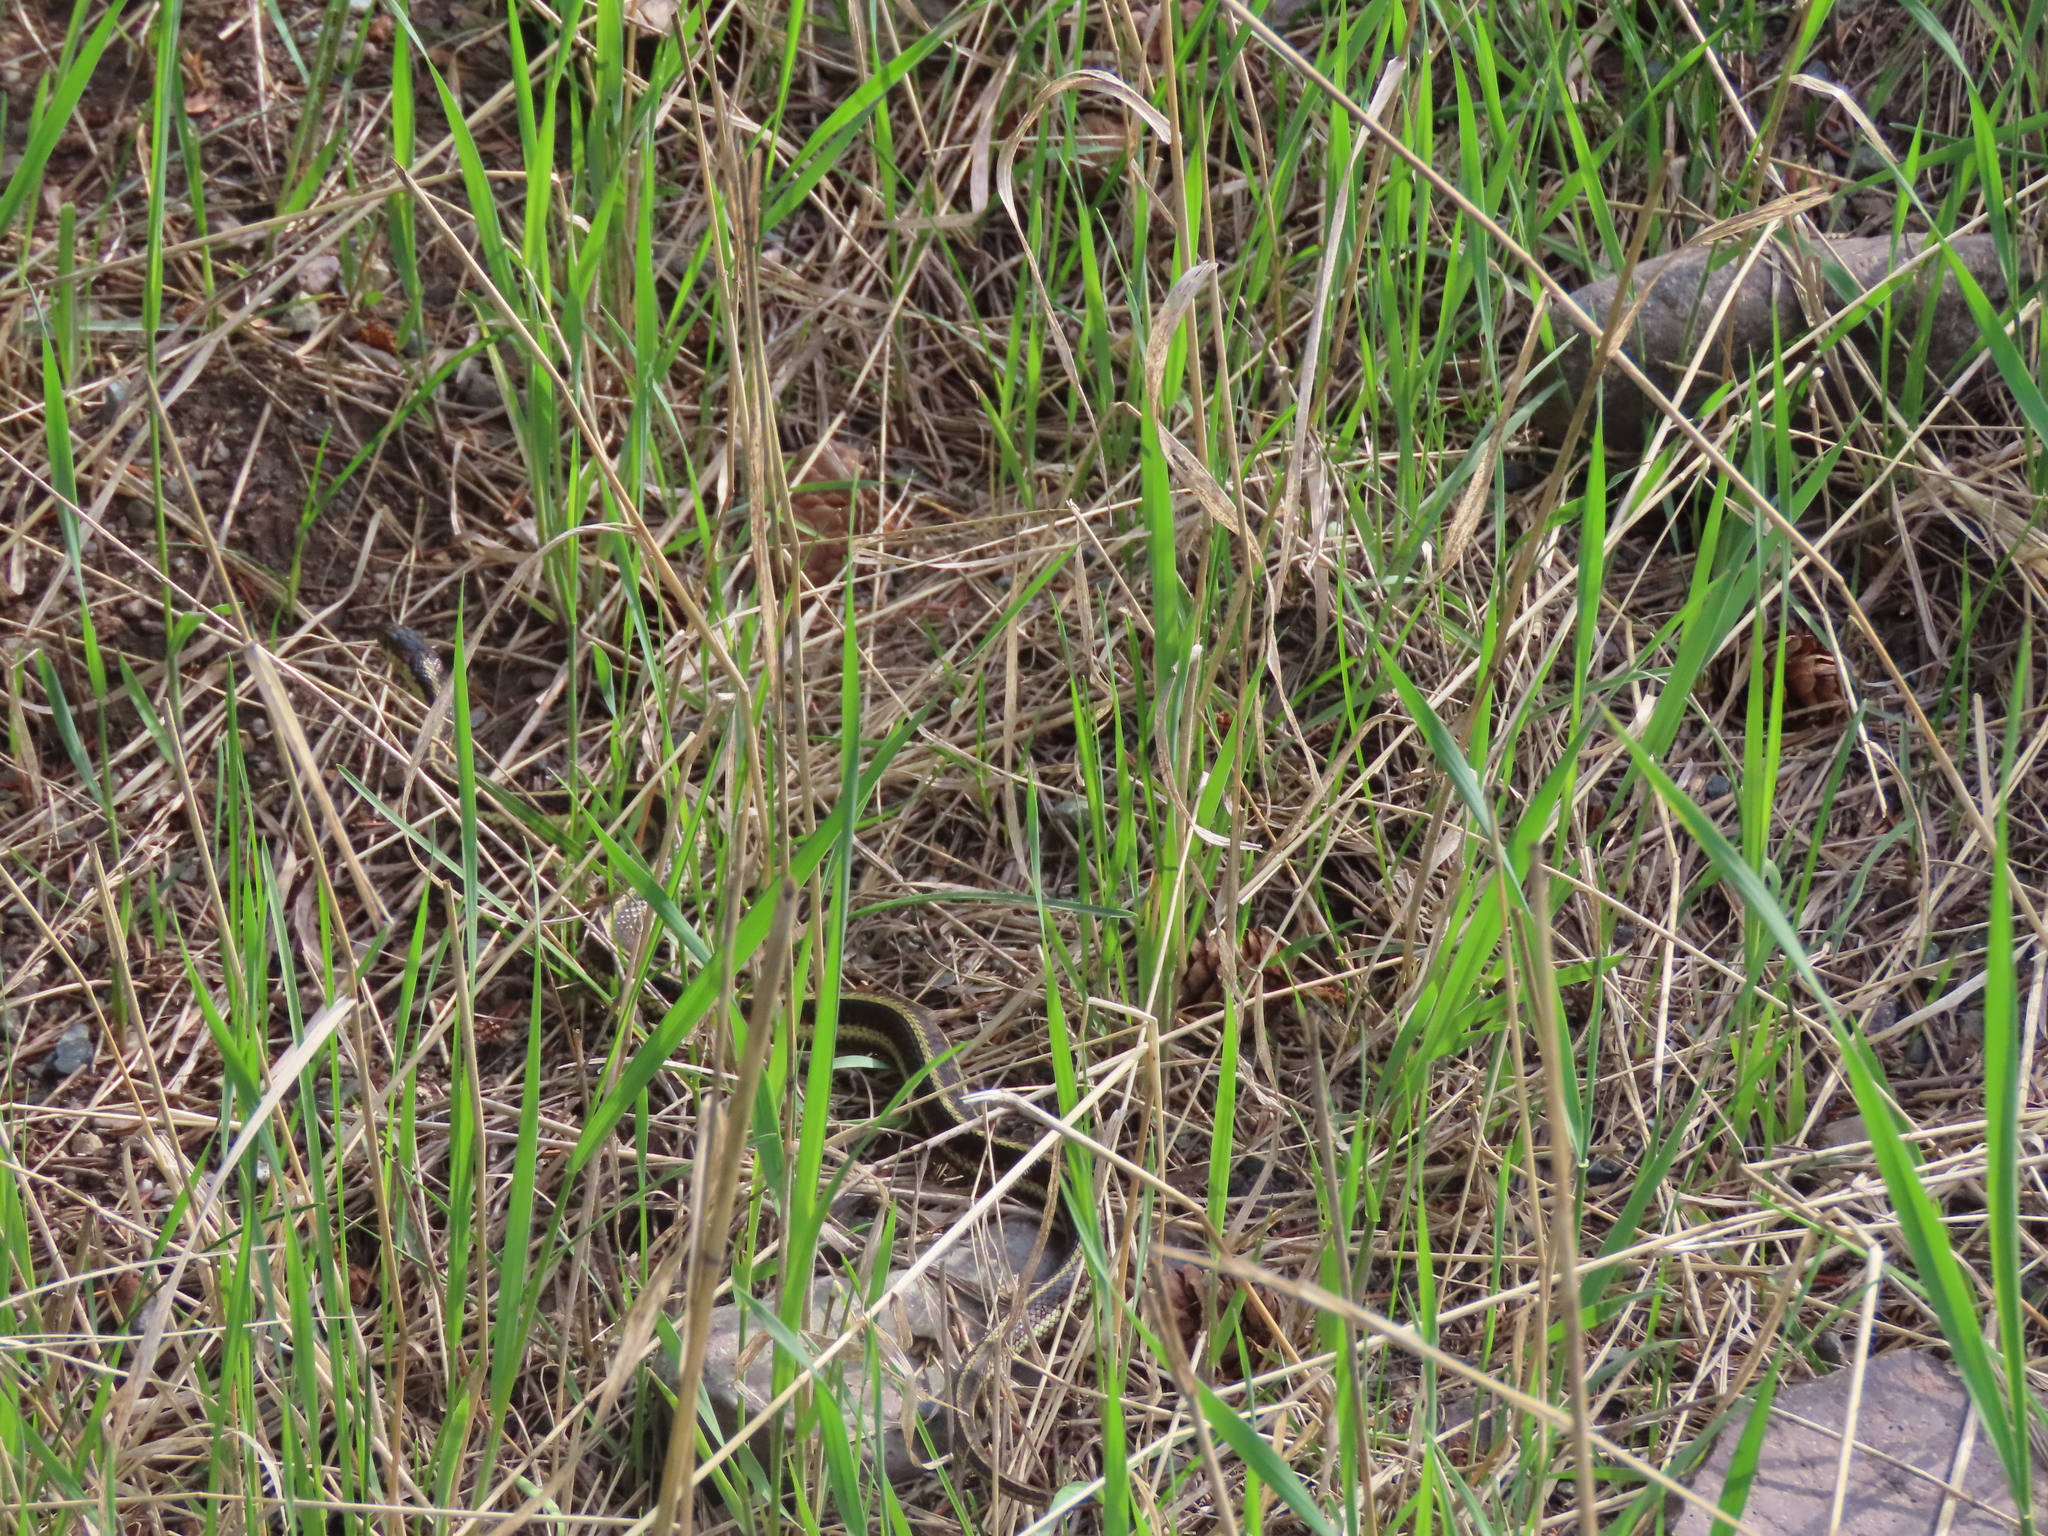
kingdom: Animalia
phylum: Chordata
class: Squamata
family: Colubridae
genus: Thamnophis
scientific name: Thamnophis sirtalis
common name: Common garter snake
